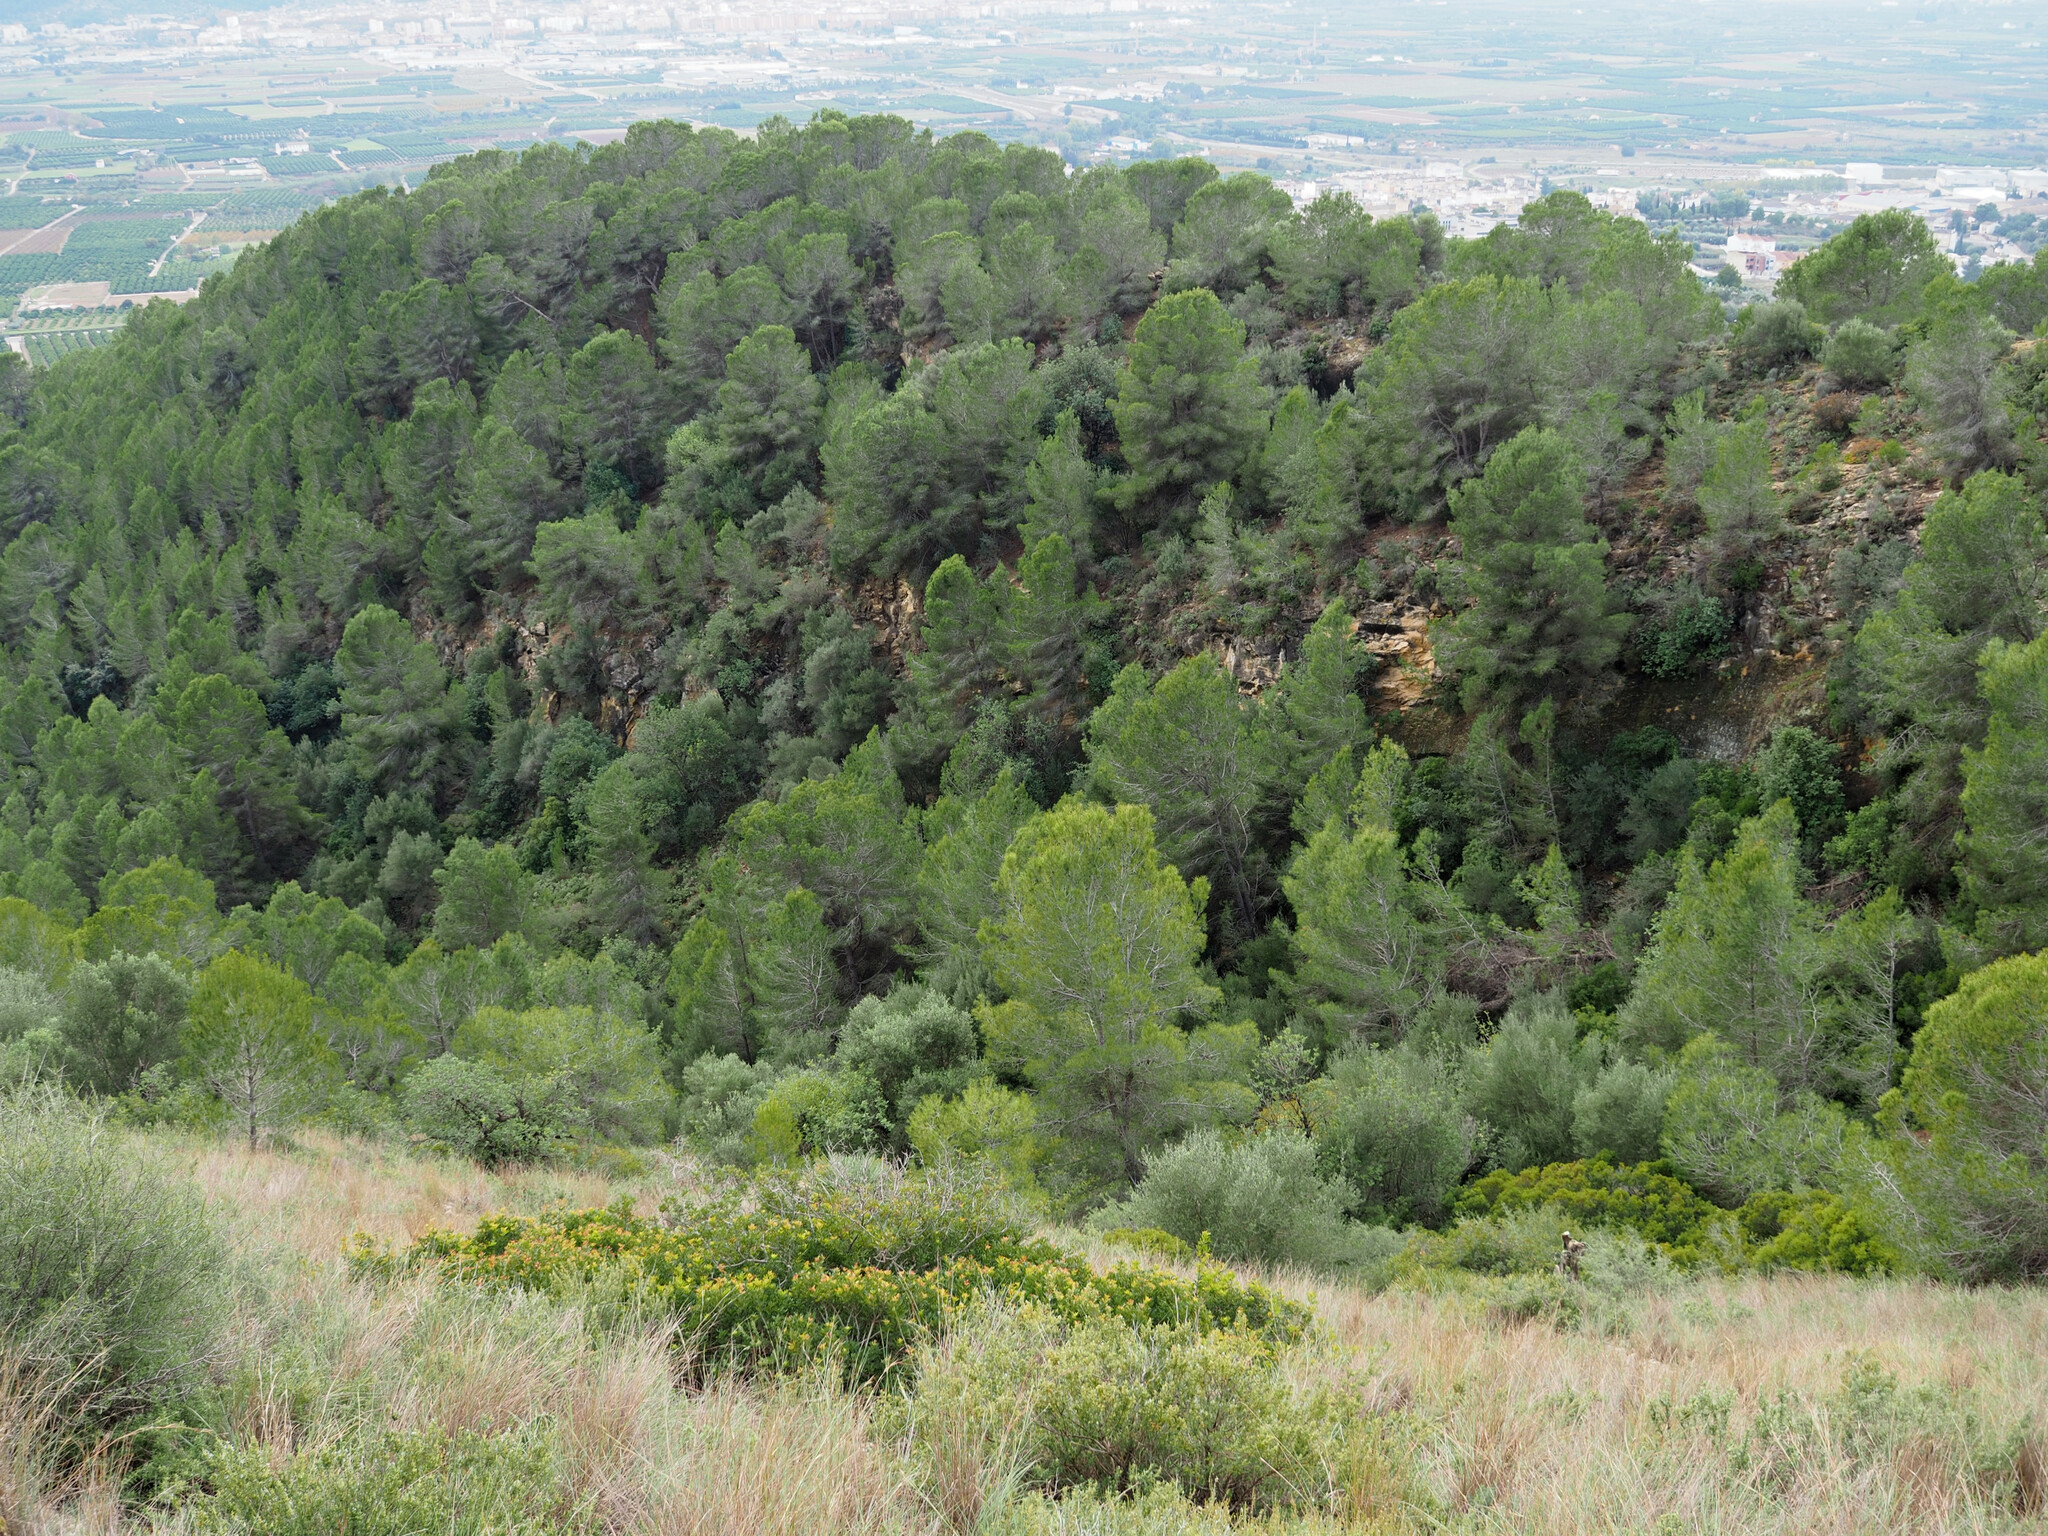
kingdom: Plantae
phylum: Tracheophyta
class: Pinopsida
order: Pinales
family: Pinaceae
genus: Pinus
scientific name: Pinus halepensis
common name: Aleppo pine
